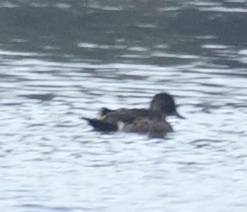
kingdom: Animalia
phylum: Chordata
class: Aves
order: Anseriformes
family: Anatidae
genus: Anas
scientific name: Anas castanea
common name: Chestnut teal
